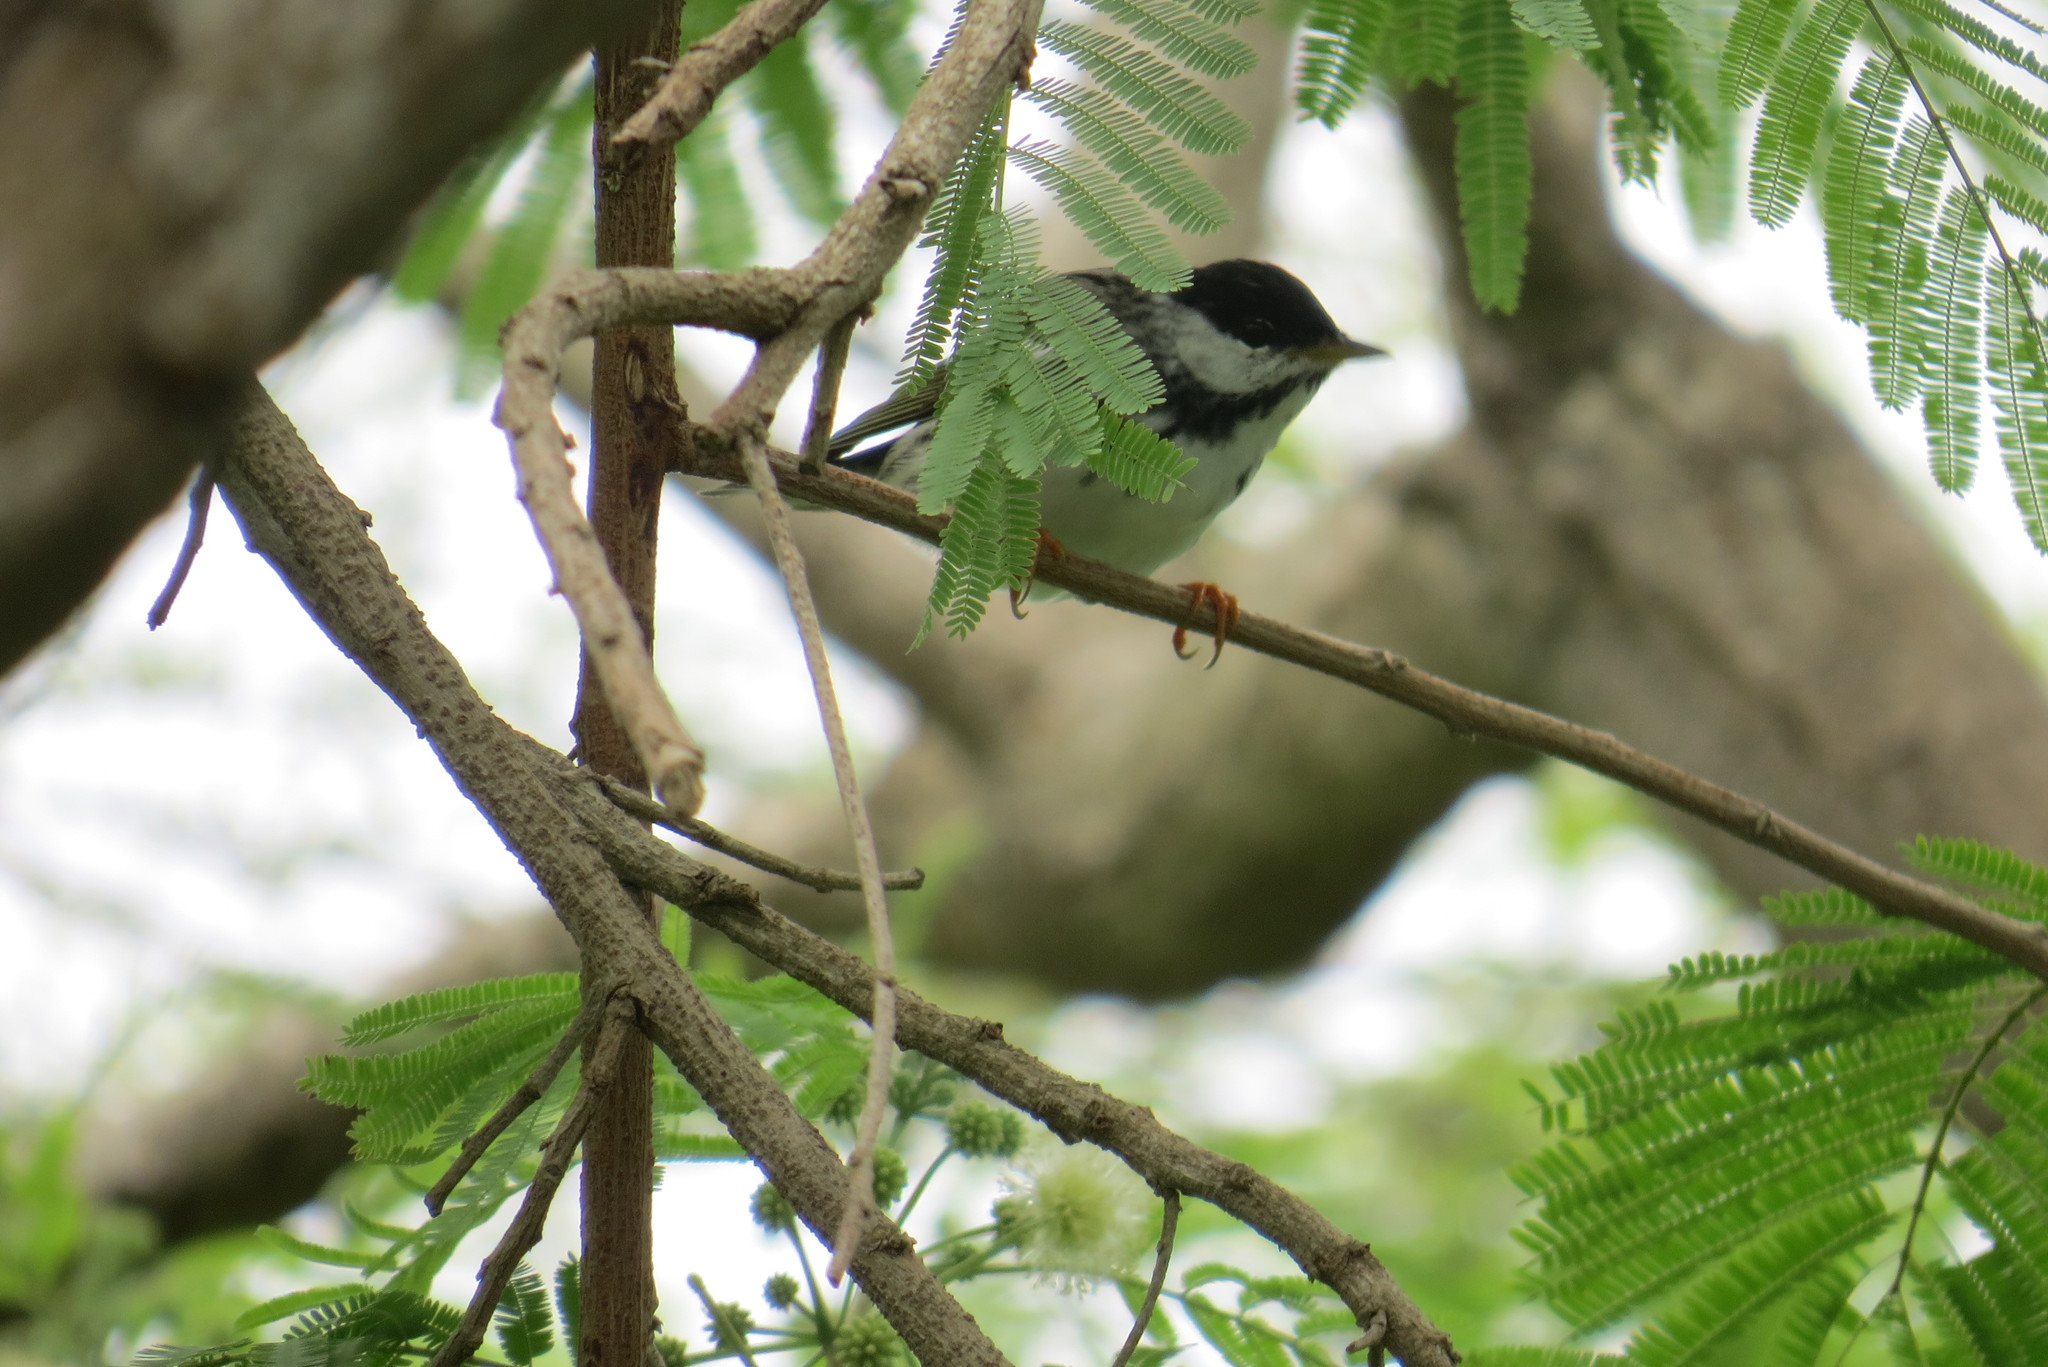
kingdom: Animalia
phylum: Chordata
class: Aves
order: Passeriformes
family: Parulidae
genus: Setophaga
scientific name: Setophaga striata
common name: Blackpoll warbler
